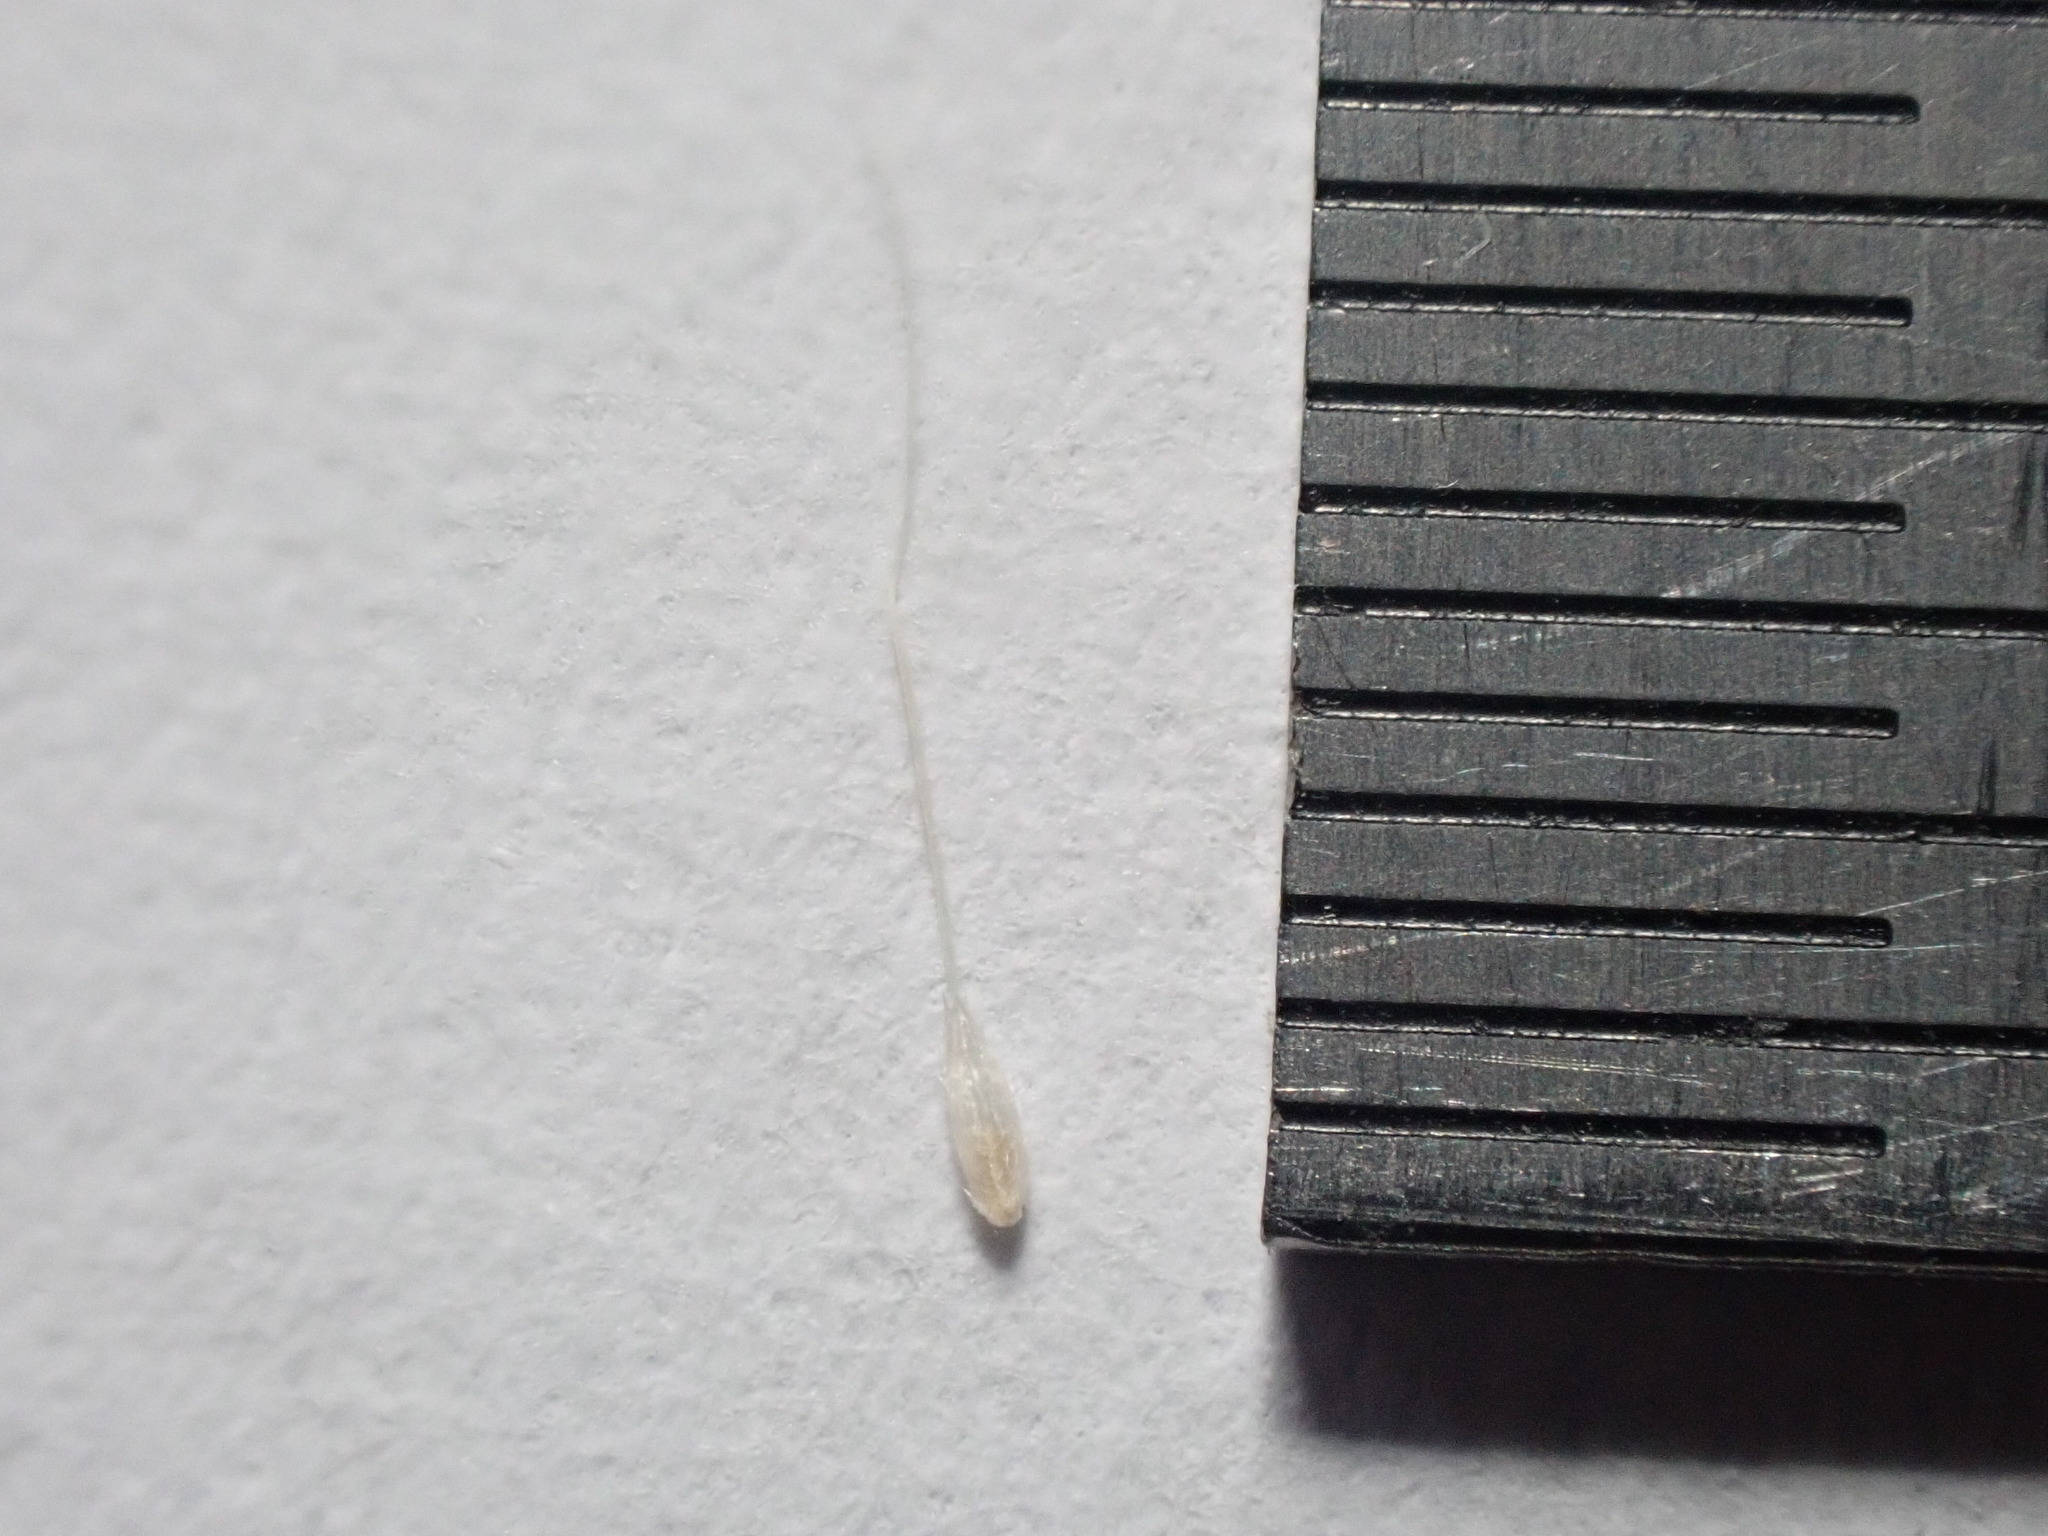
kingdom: Plantae
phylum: Tracheophyta
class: Liliopsida
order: Poales
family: Poaceae
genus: Gastridium
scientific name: Gastridium phleoides
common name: Nit grass
